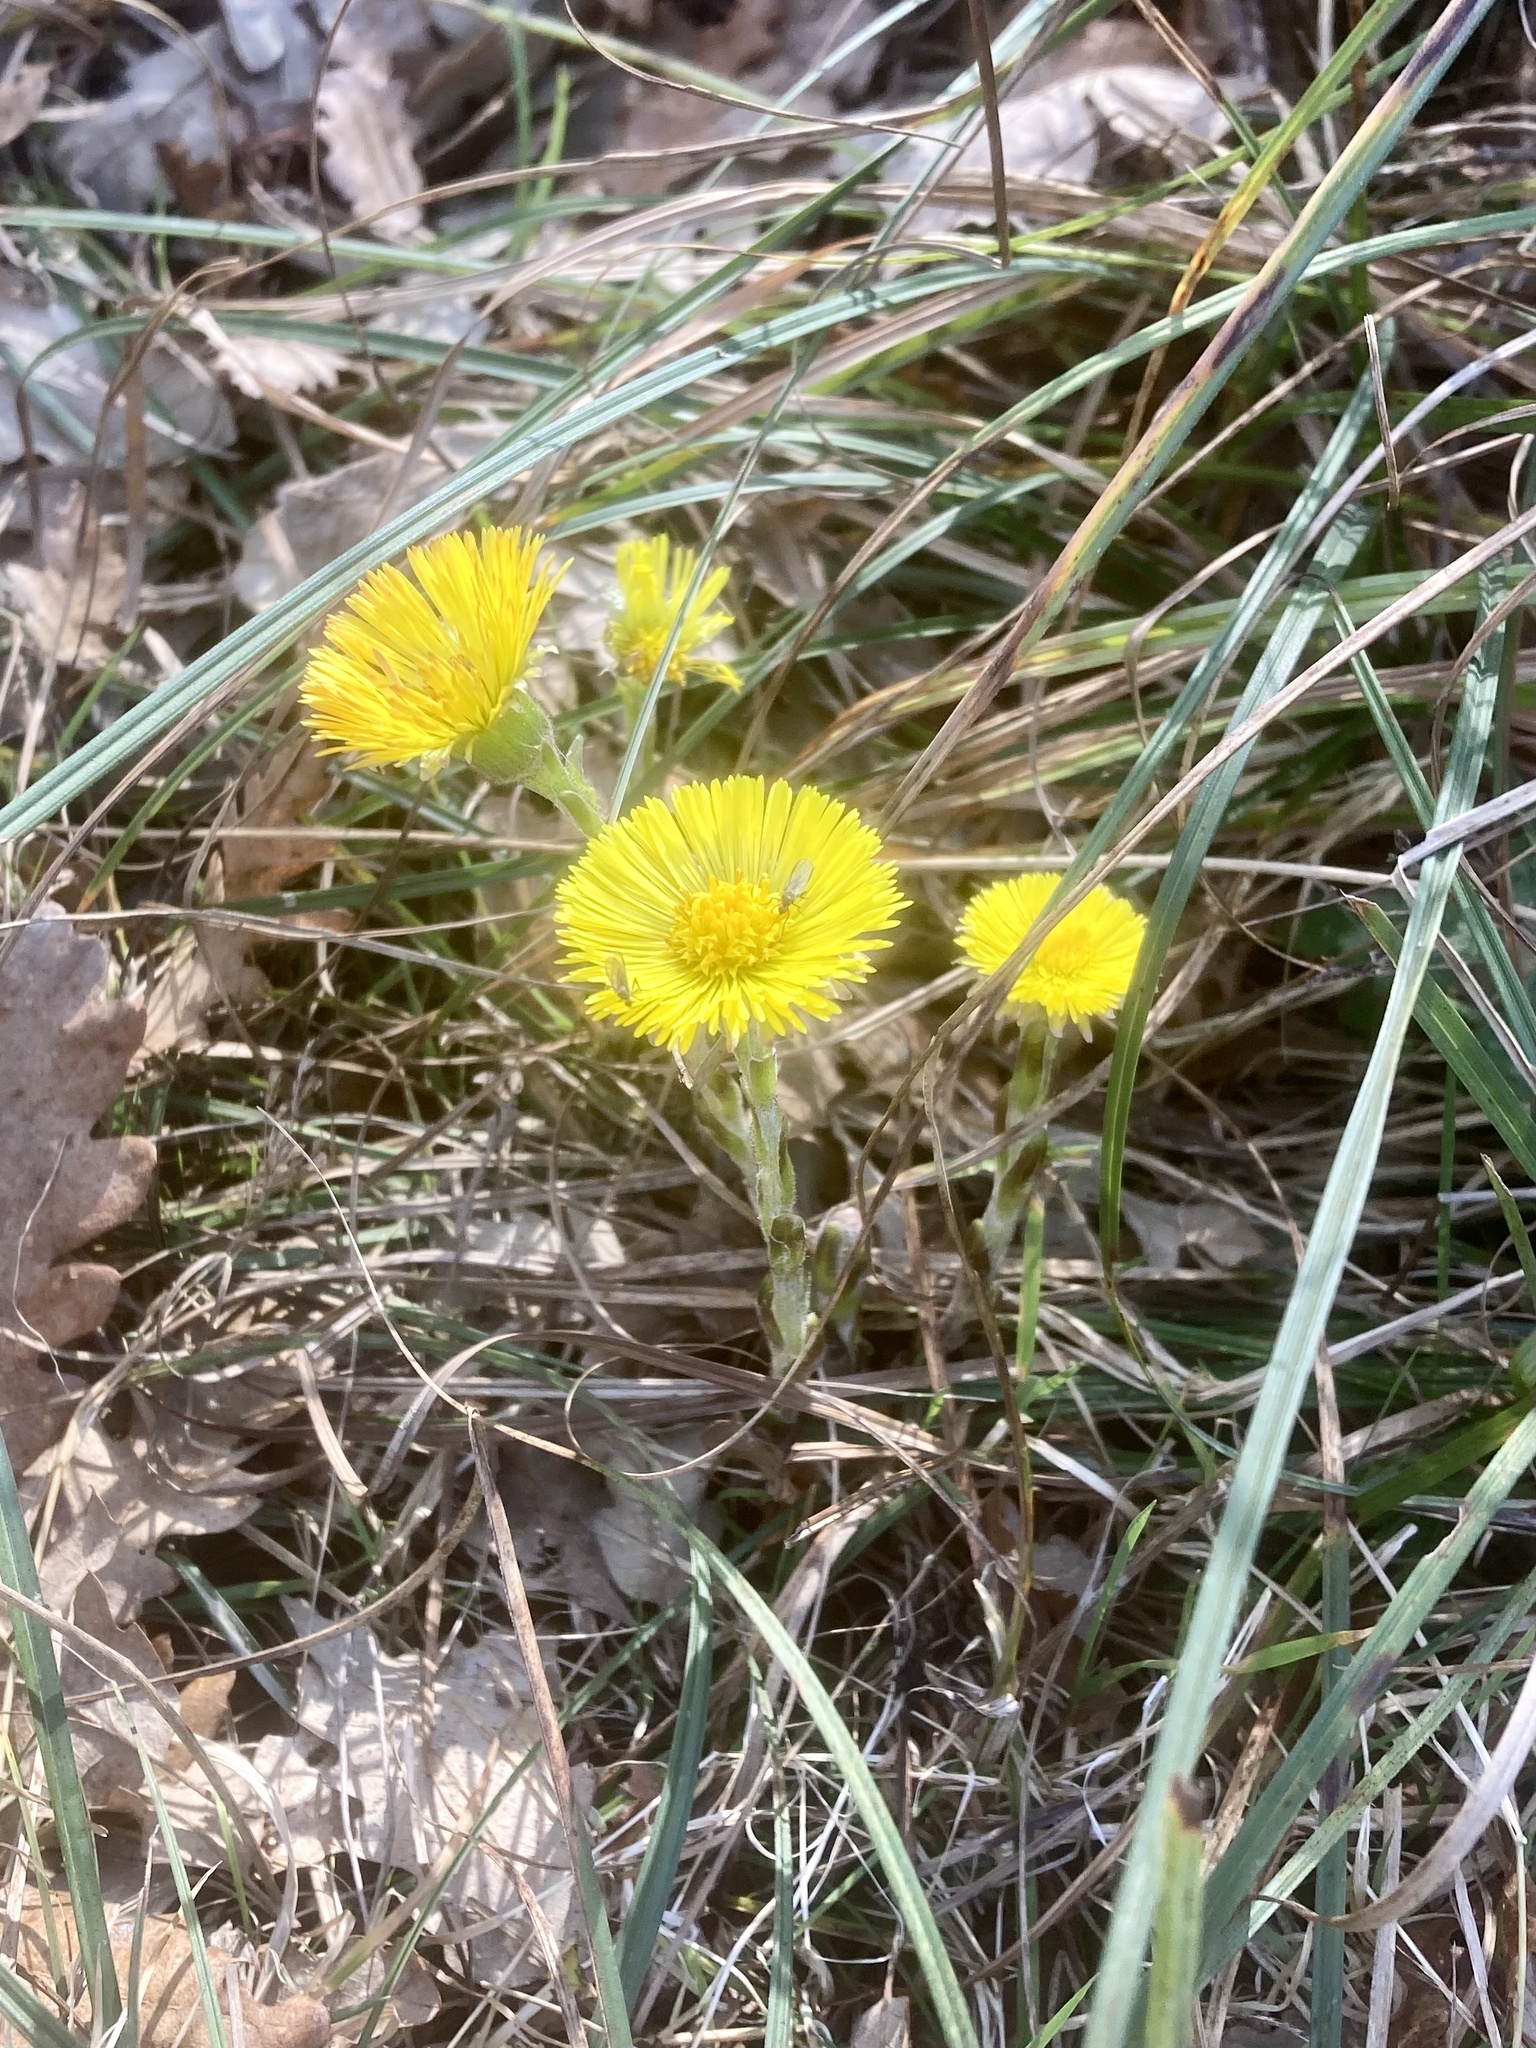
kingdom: Plantae
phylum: Tracheophyta
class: Magnoliopsida
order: Asterales
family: Asteraceae
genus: Tussilago
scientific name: Tussilago farfara
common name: Coltsfoot
